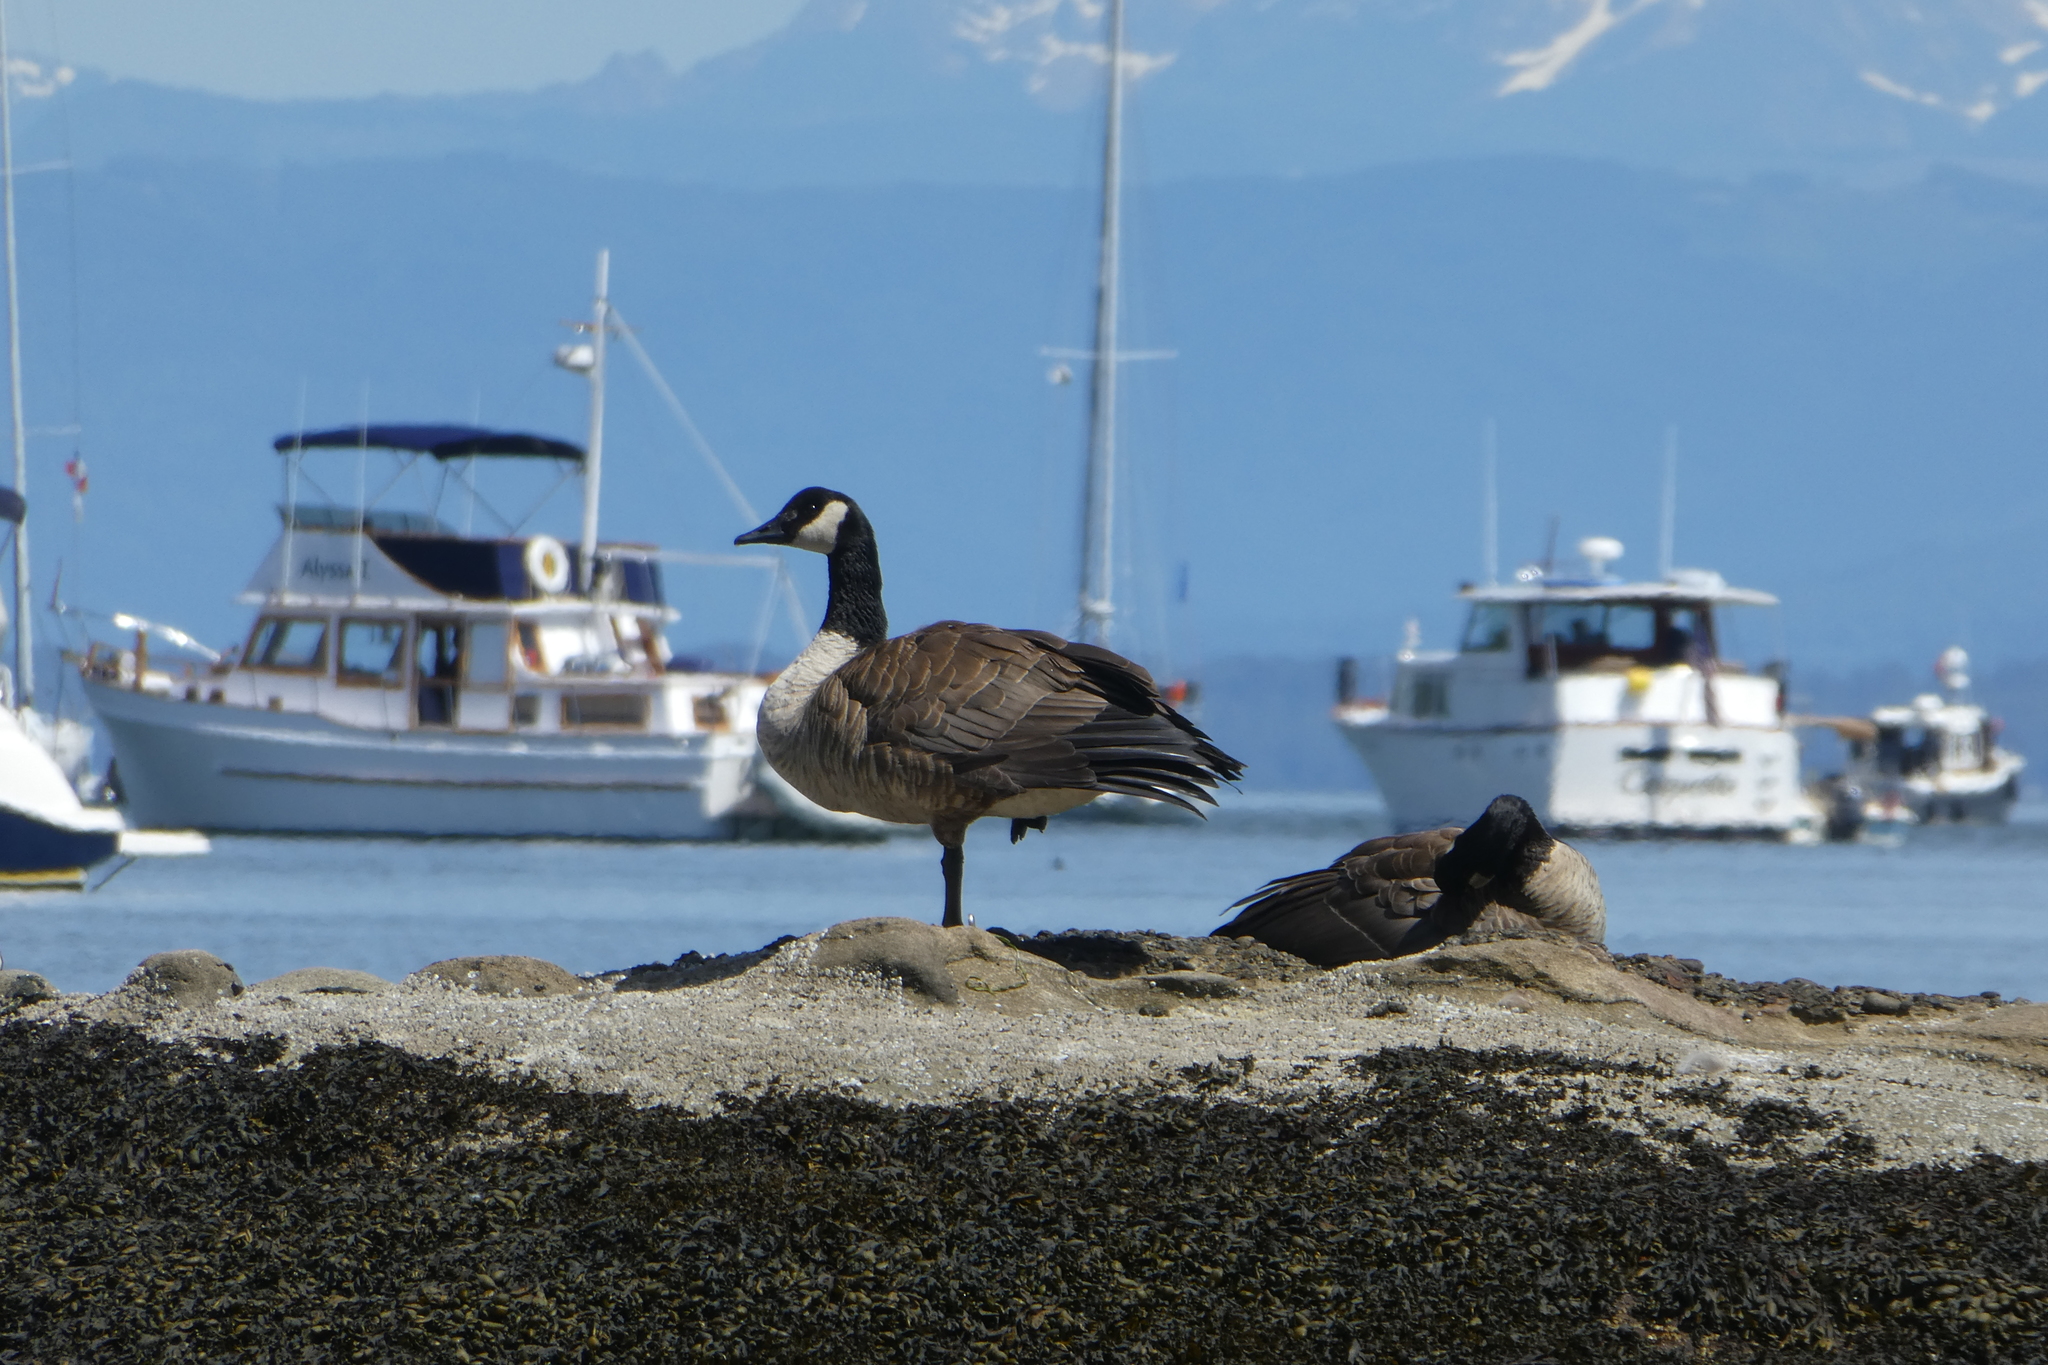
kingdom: Animalia
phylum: Chordata
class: Aves
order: Anseriformes
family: Anatidae
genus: Branta
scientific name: Branta canadensis
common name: Canada goose
